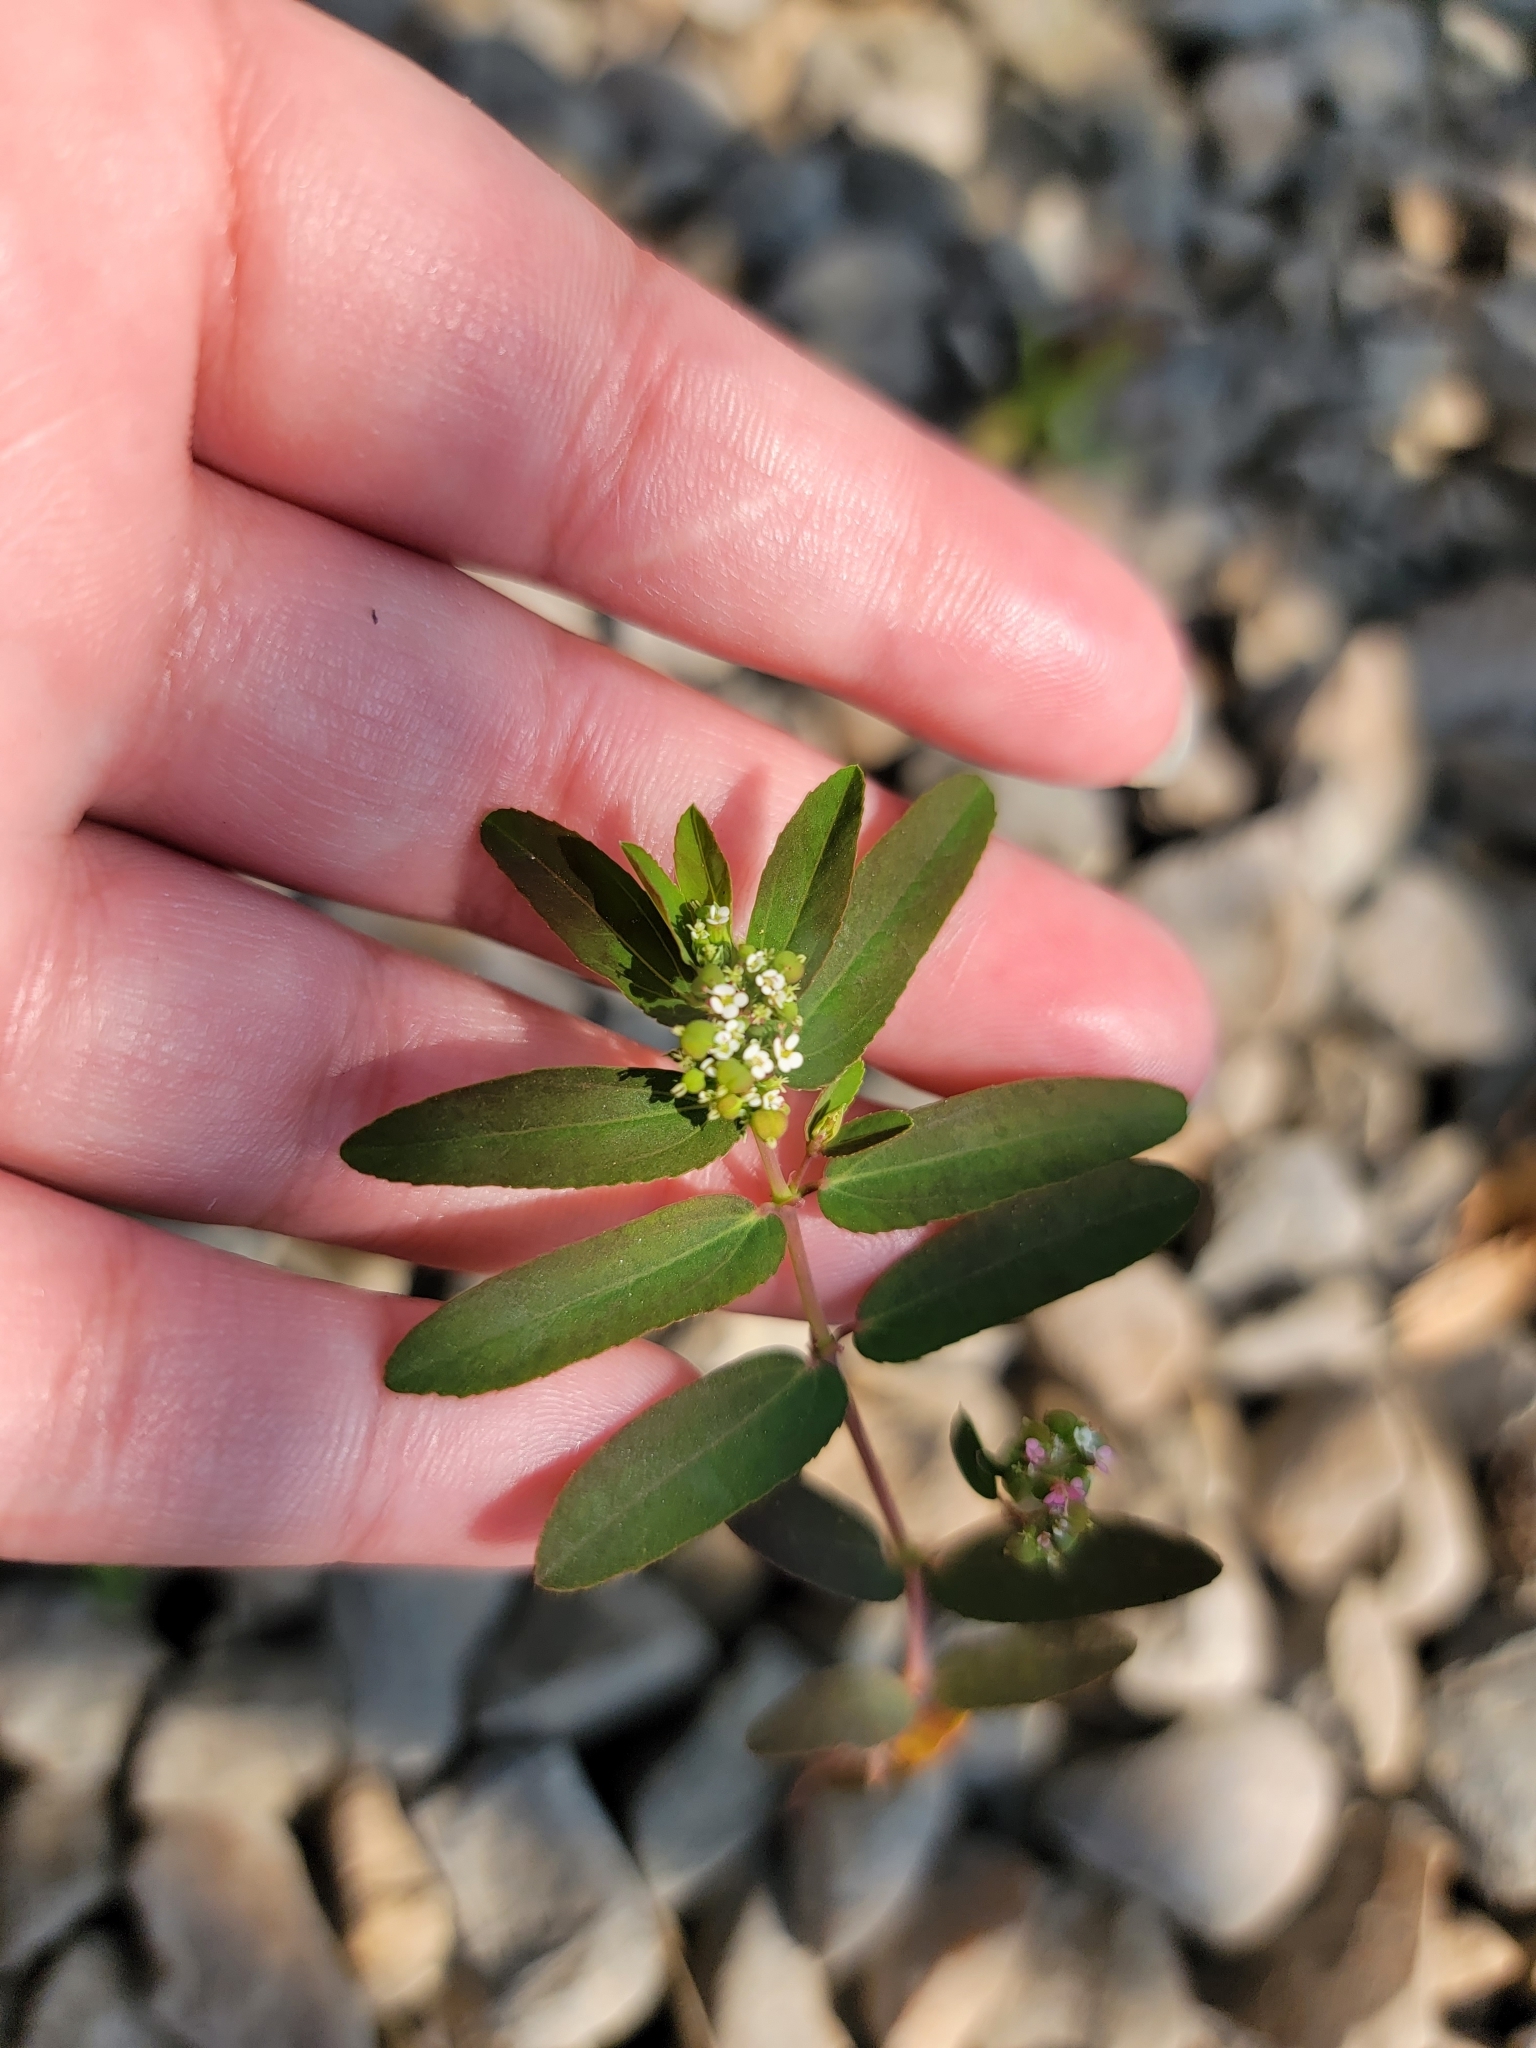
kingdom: Plantae
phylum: Tracheophyta
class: Magnoliopsida
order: Malpighiales
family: Euphorbiaceae
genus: Euphorbia
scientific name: Euphorbia hypericifolia
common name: Graceful sandmat
